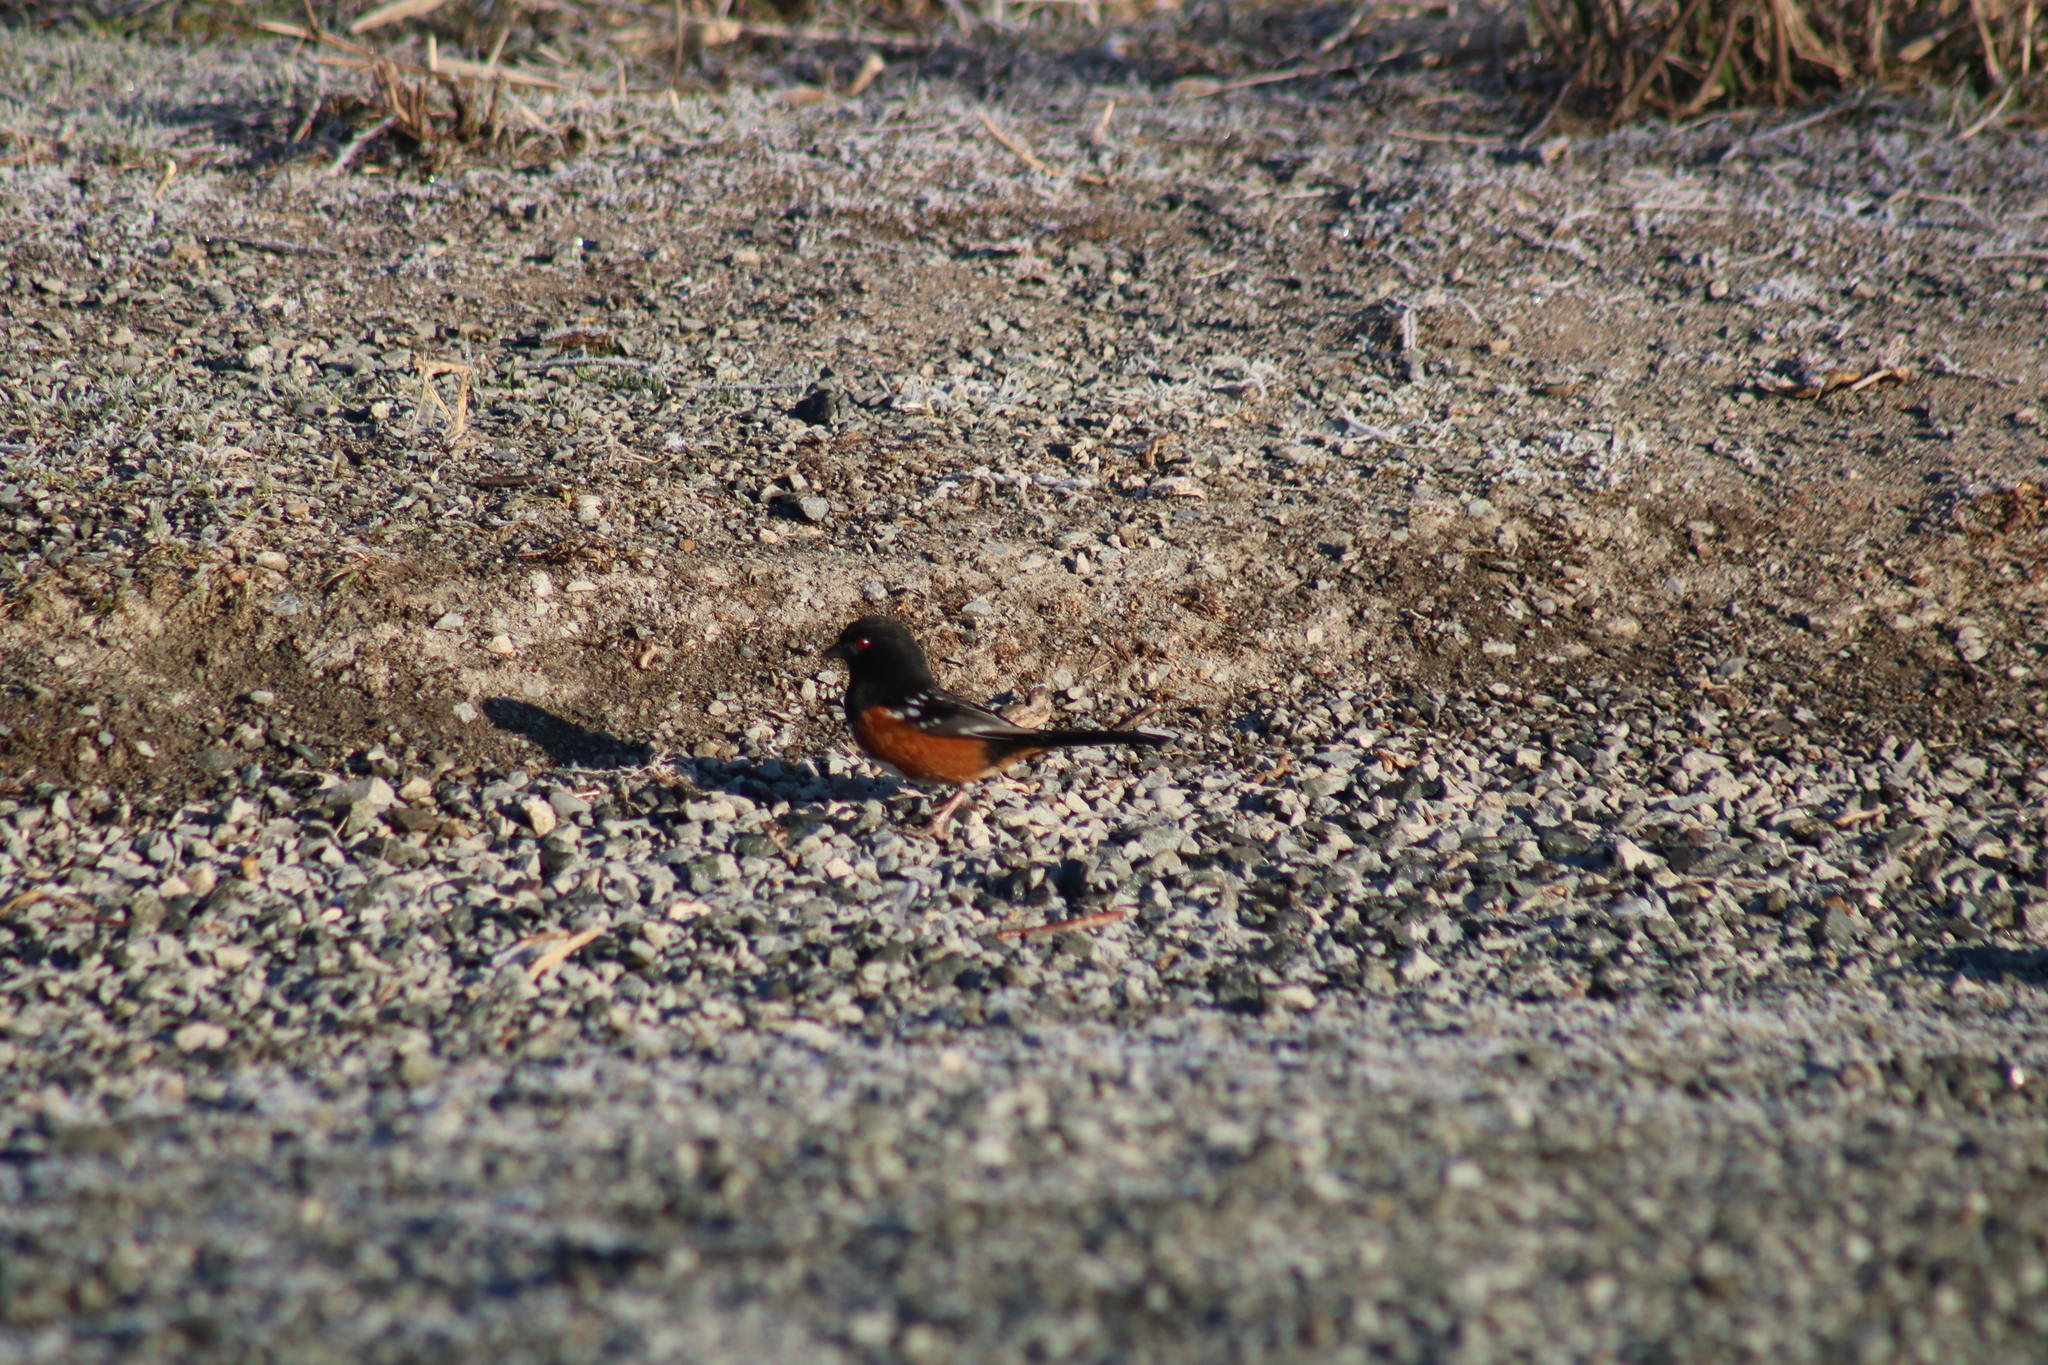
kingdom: Animalia
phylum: Chordata
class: Aves
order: Passeriformes
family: Passerellidae
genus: Pipilo
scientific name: Pipilo maculatus
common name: Spotted towhee
